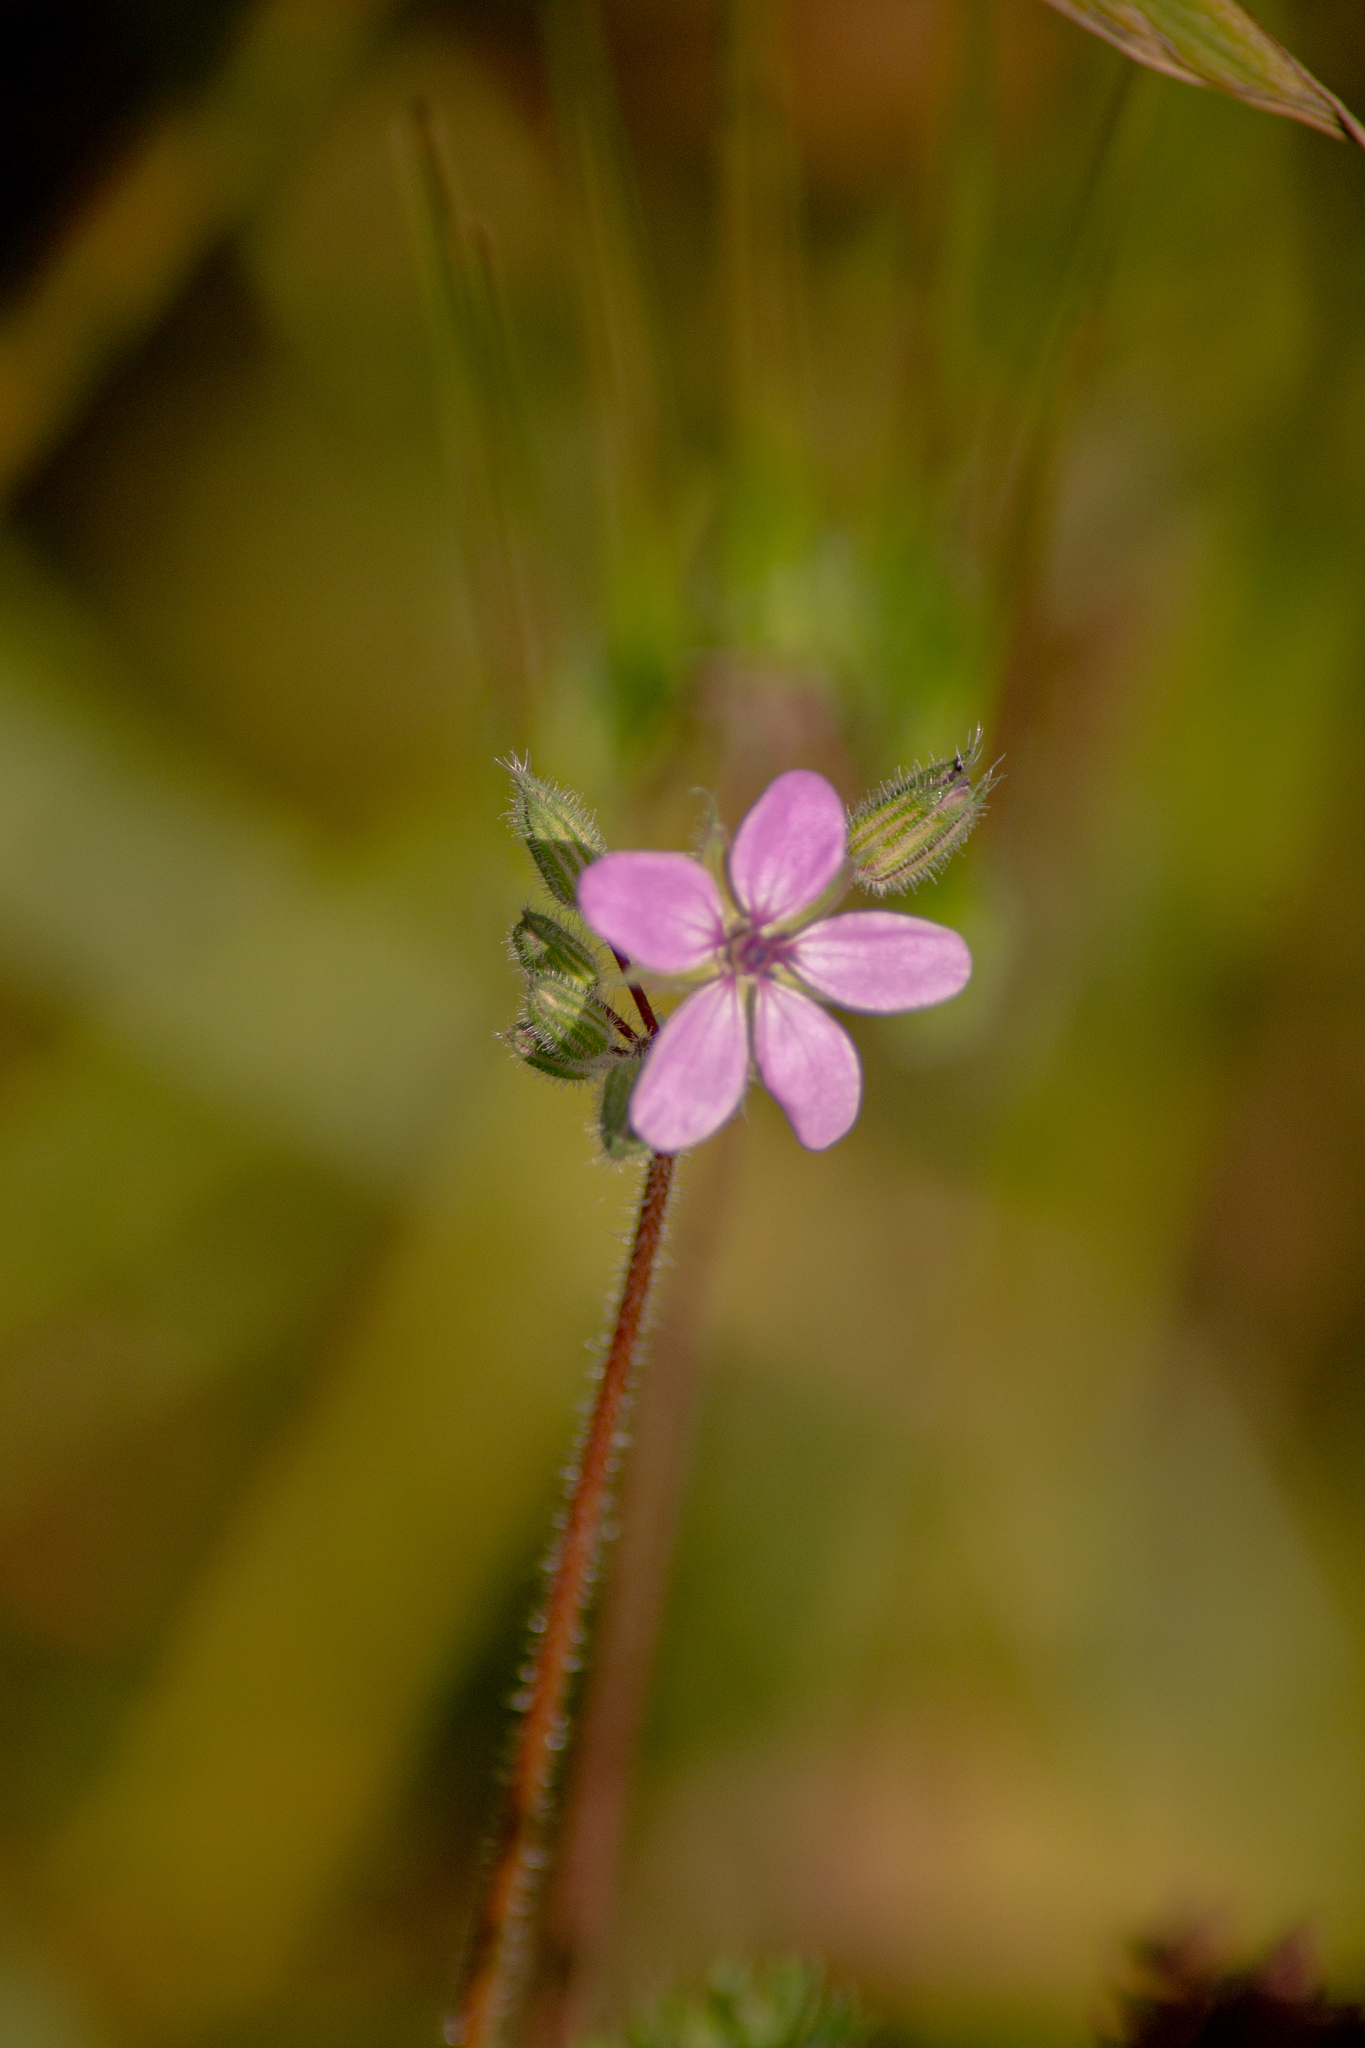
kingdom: Plantae
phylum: Tracheophyta
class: Magnoliopsida
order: Geraniales
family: Geraniaceae
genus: Erodium
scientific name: Erodium cicutarium
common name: Common stork's-bill
